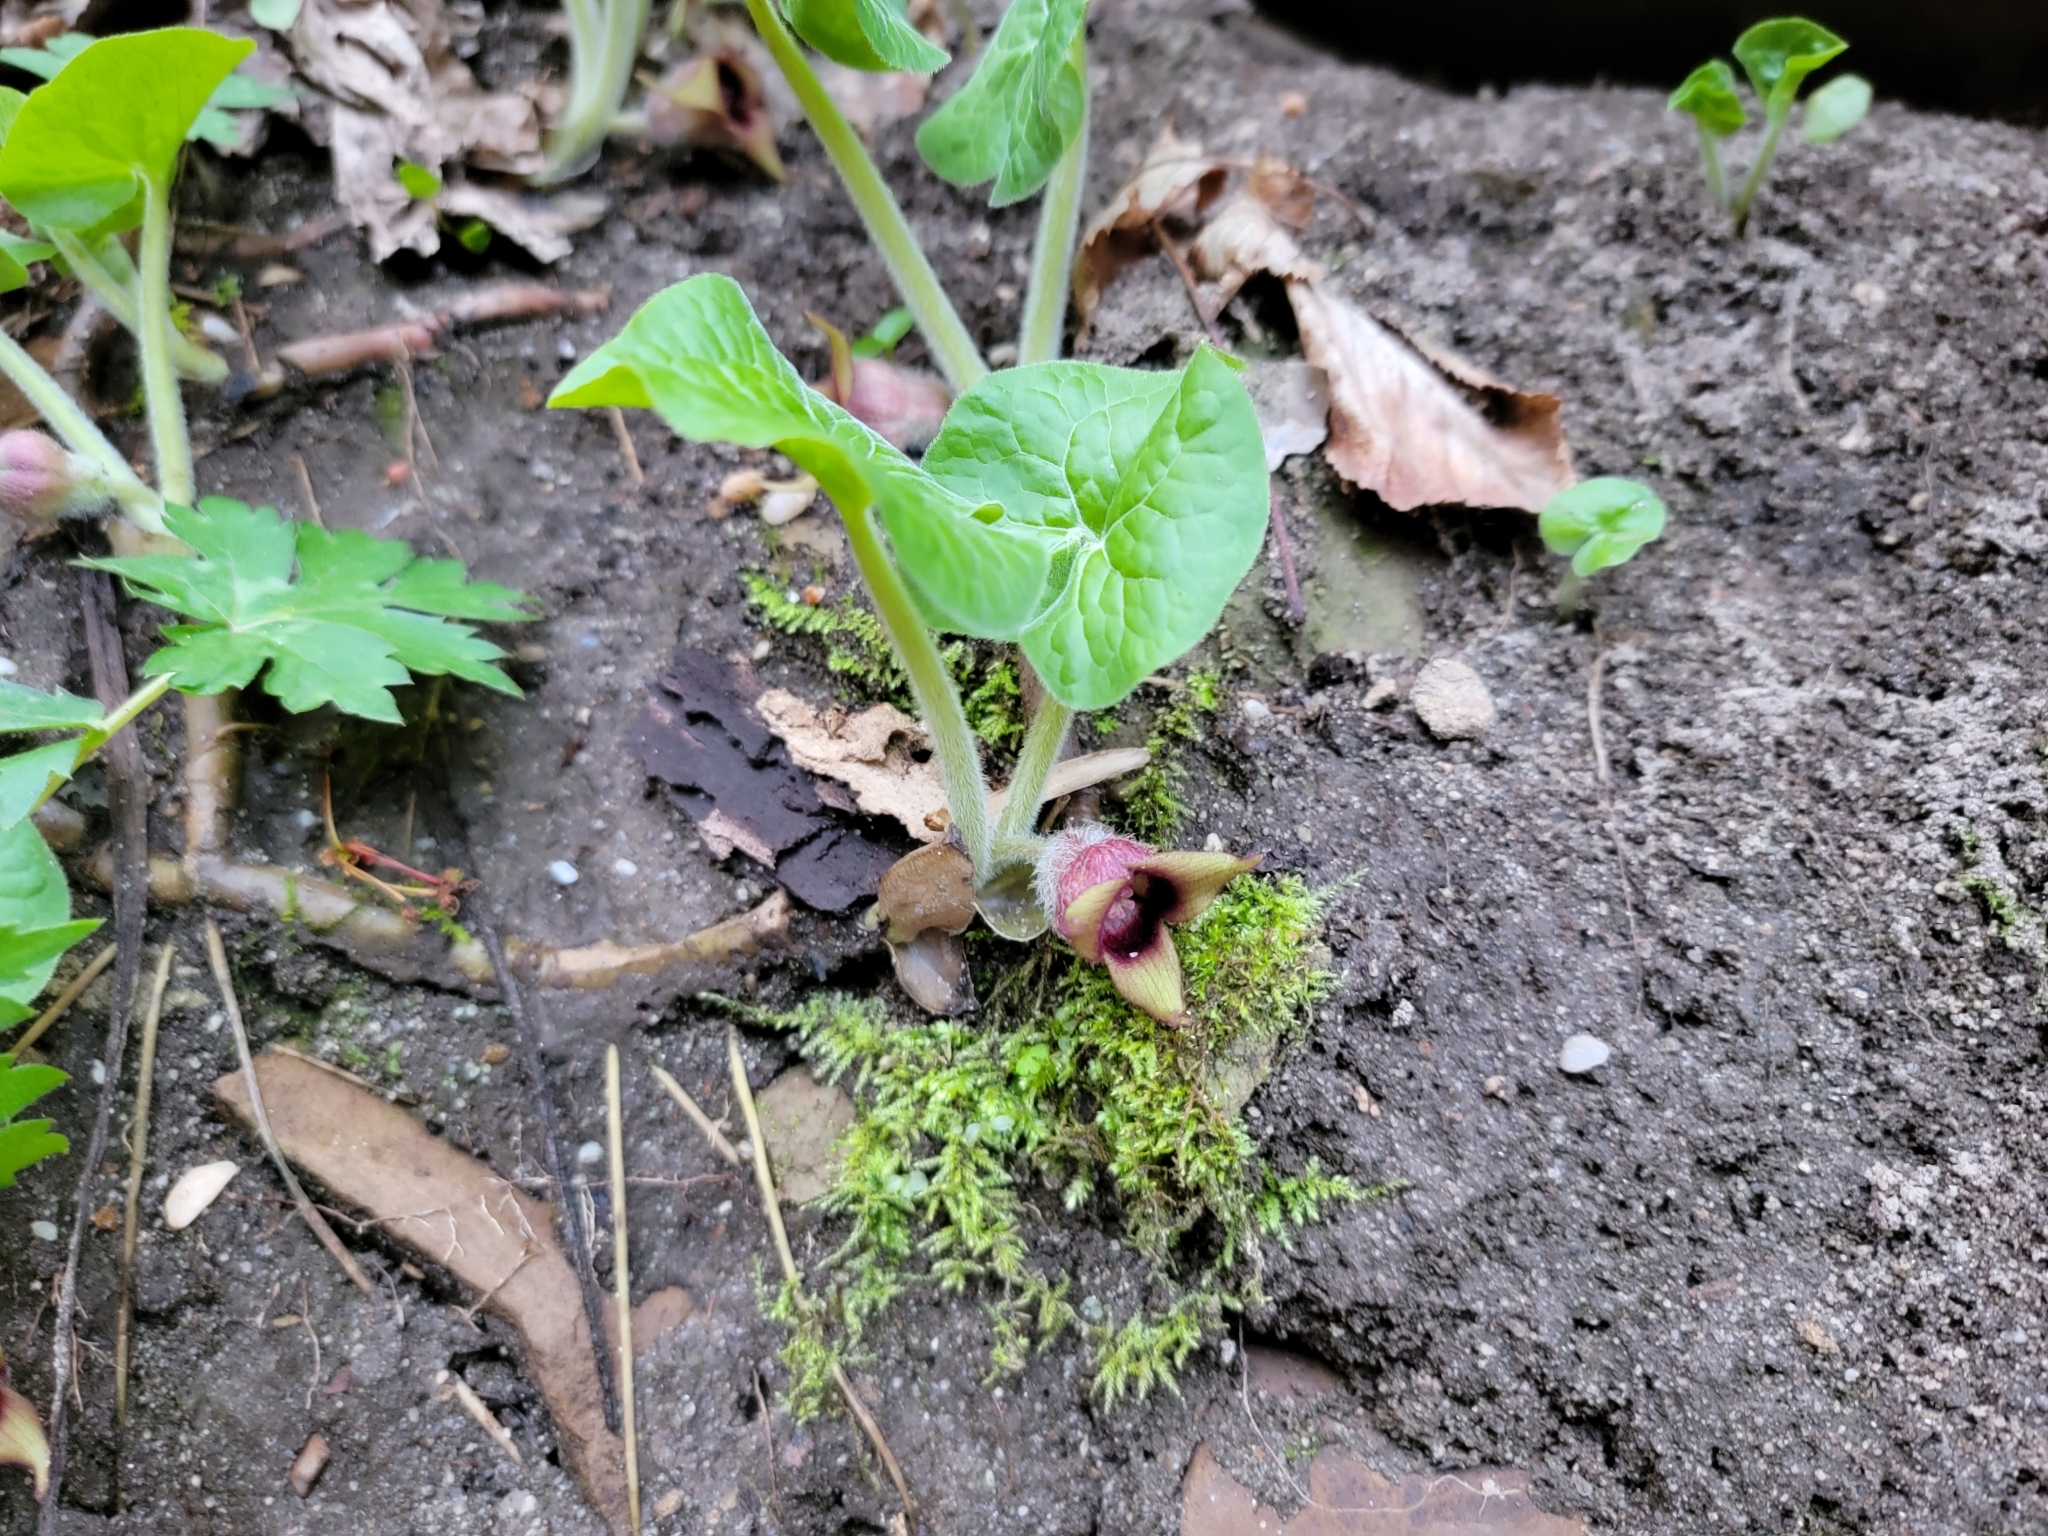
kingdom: Plantae
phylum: Tracheophyta
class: Magnoliopsida
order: Piperales
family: Aristolochiaceae
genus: Asarum
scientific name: Asarum canadense
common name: Wild ginger
